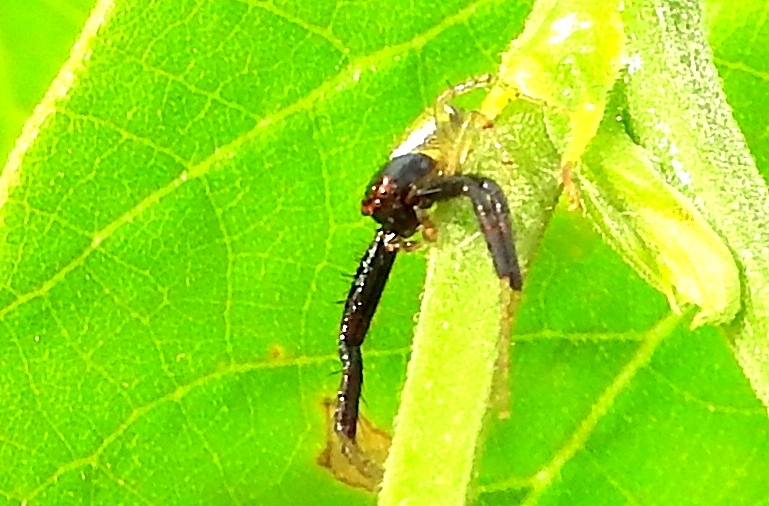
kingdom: Animalia
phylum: Arthropoda
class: Arachnida
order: Araneae
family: Thomisidae
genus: Synema
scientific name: Synema
